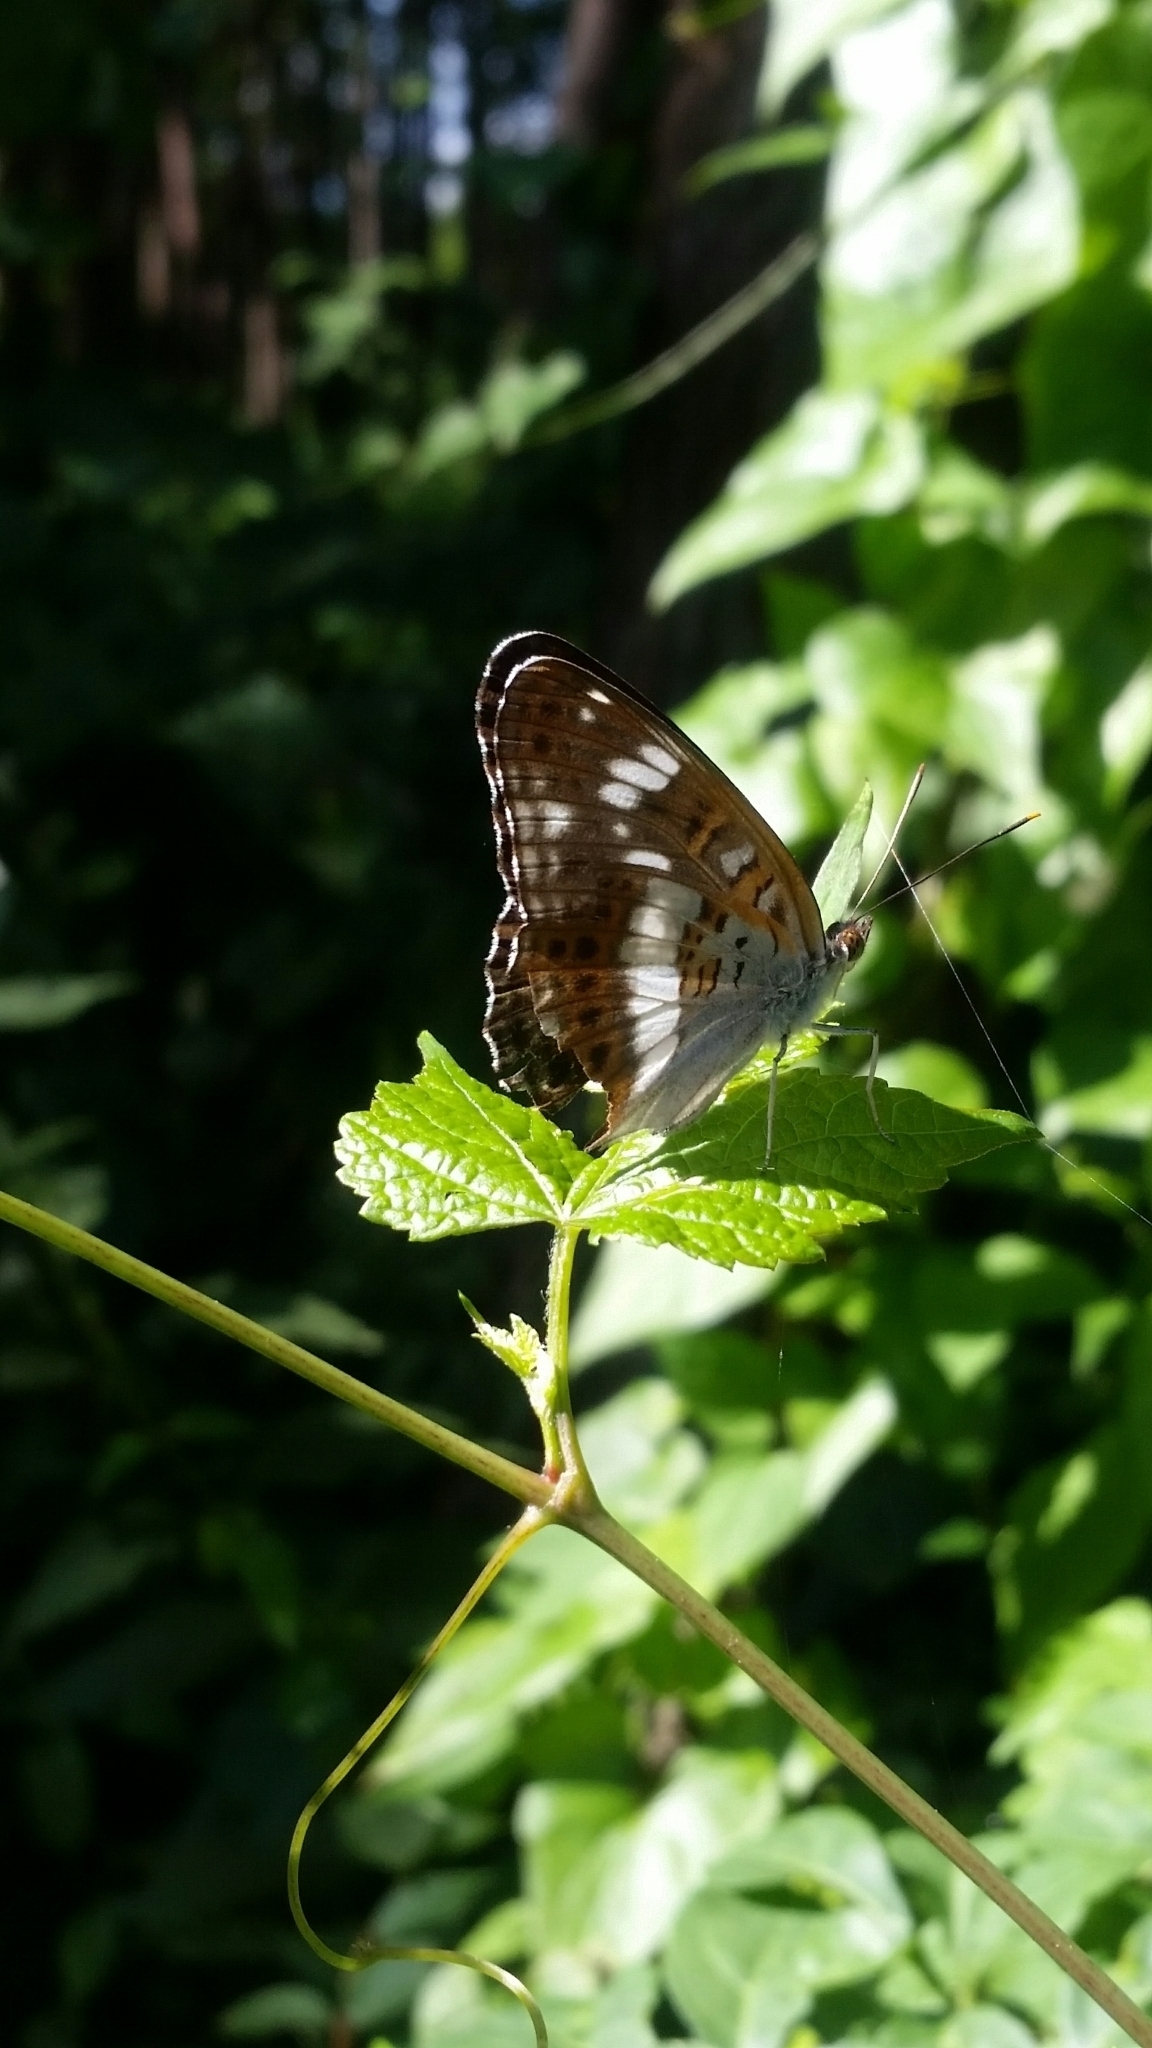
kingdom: Animalia
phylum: Arthropoda
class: Insecta
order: Lepidoptera
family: Nymphalidae
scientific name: Nymphalidae
